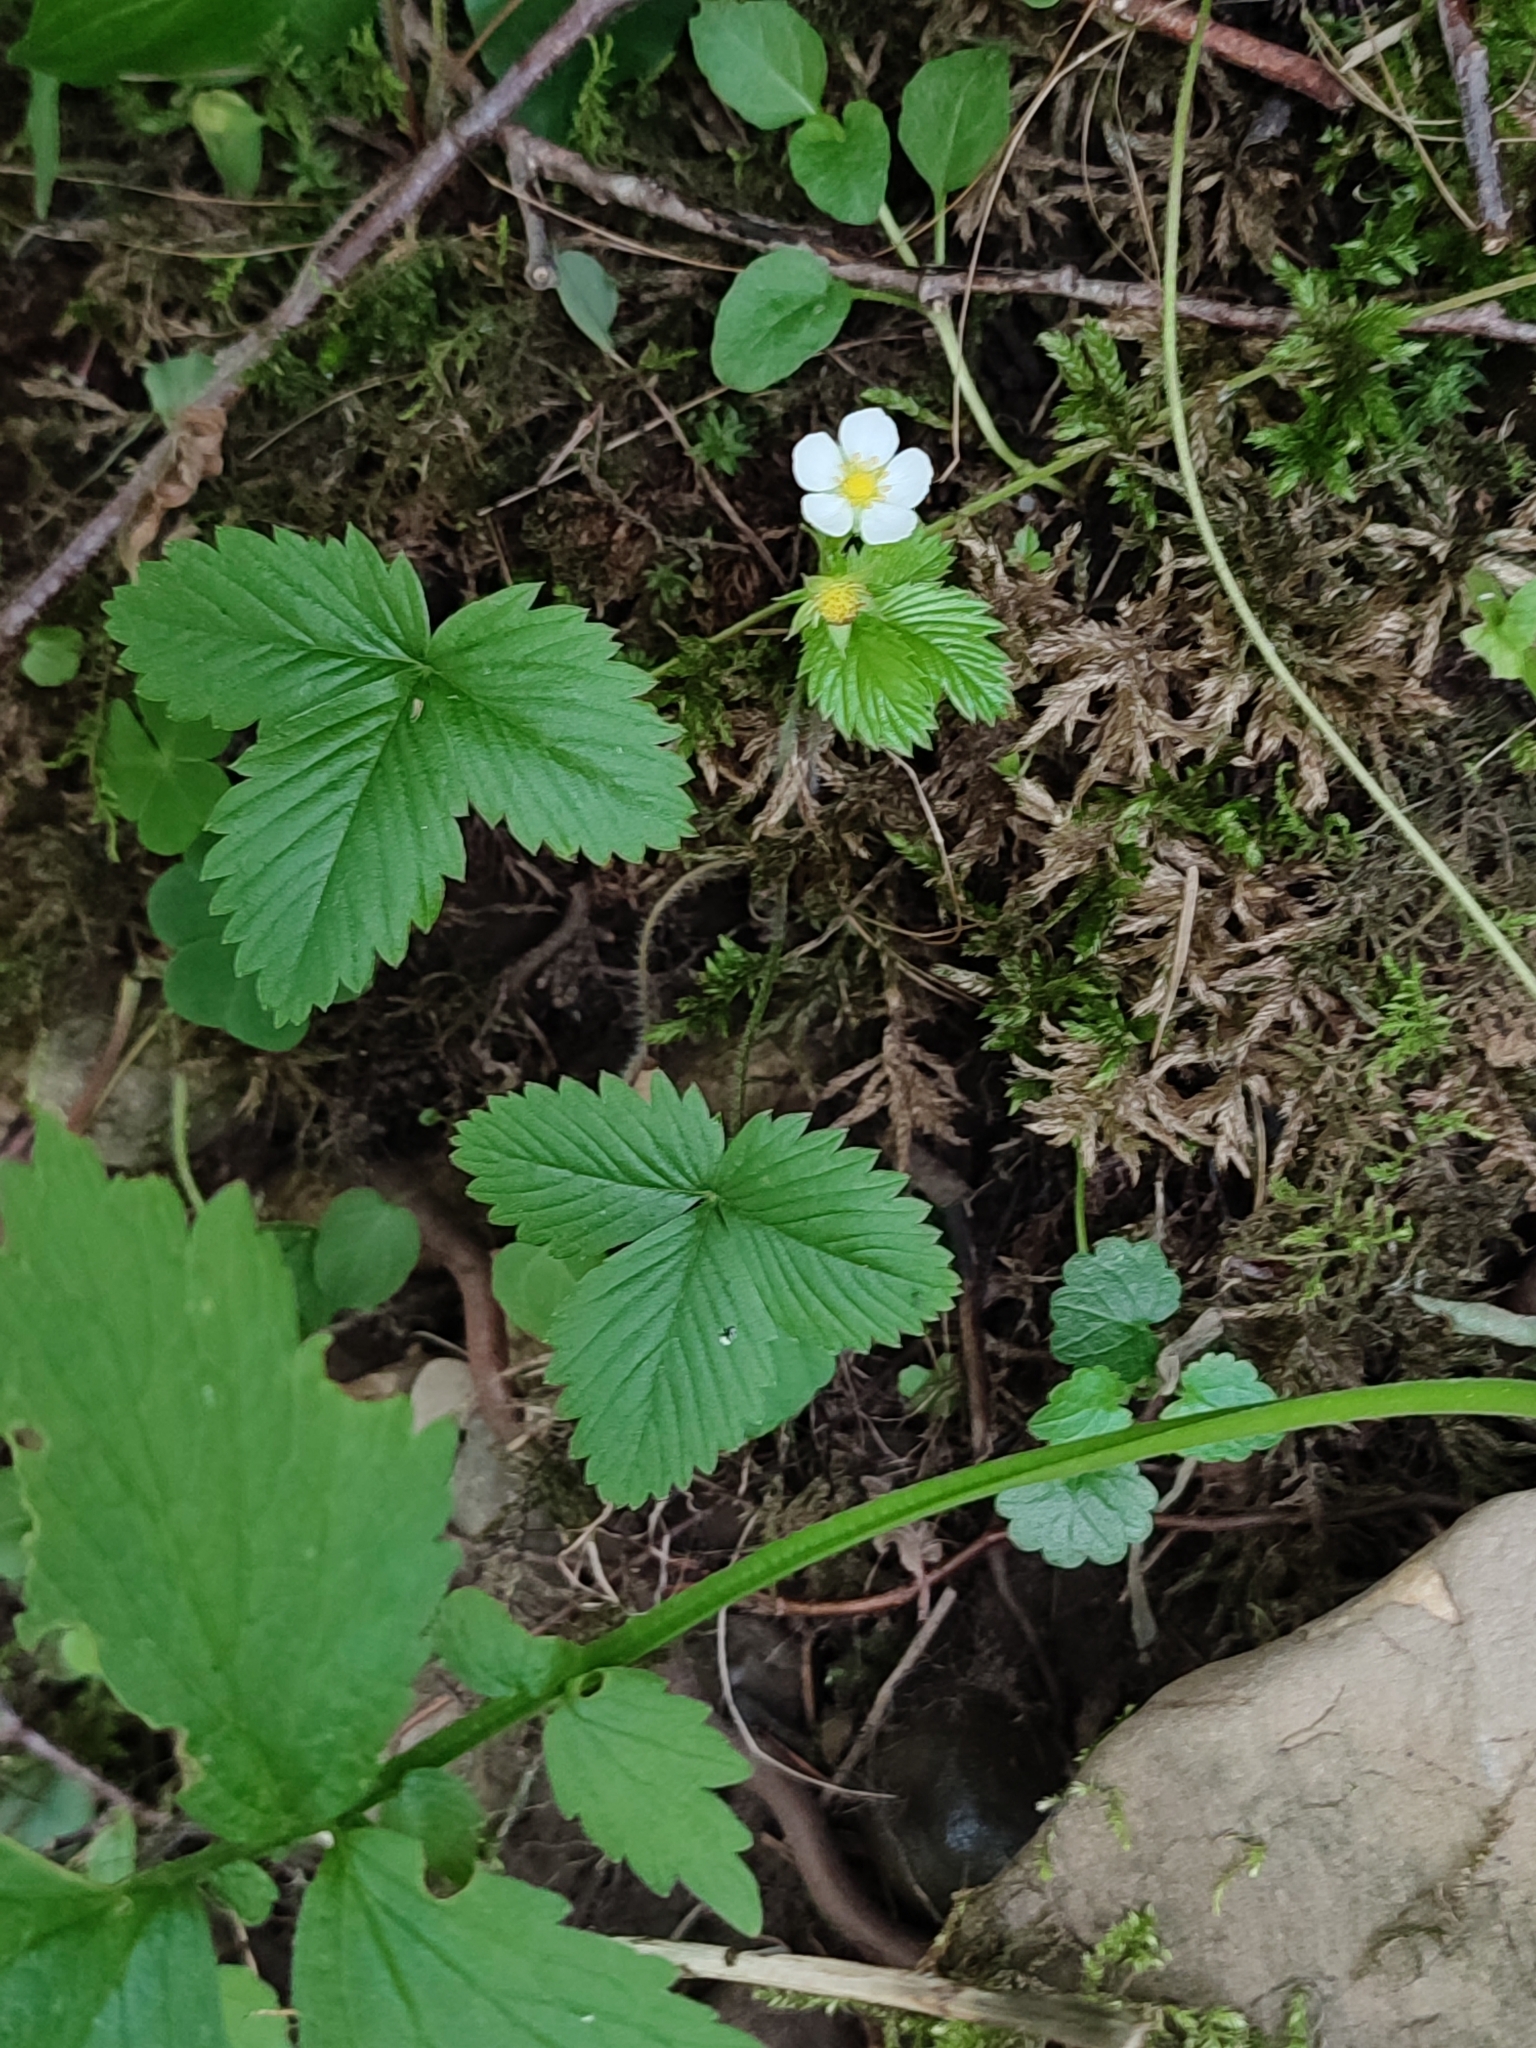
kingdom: Plantae
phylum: Tracheophyta
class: Magnoliopsida
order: Rosales
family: Rosaceae
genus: Fragaria
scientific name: Fragaria vesca
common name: Wild strawberry
